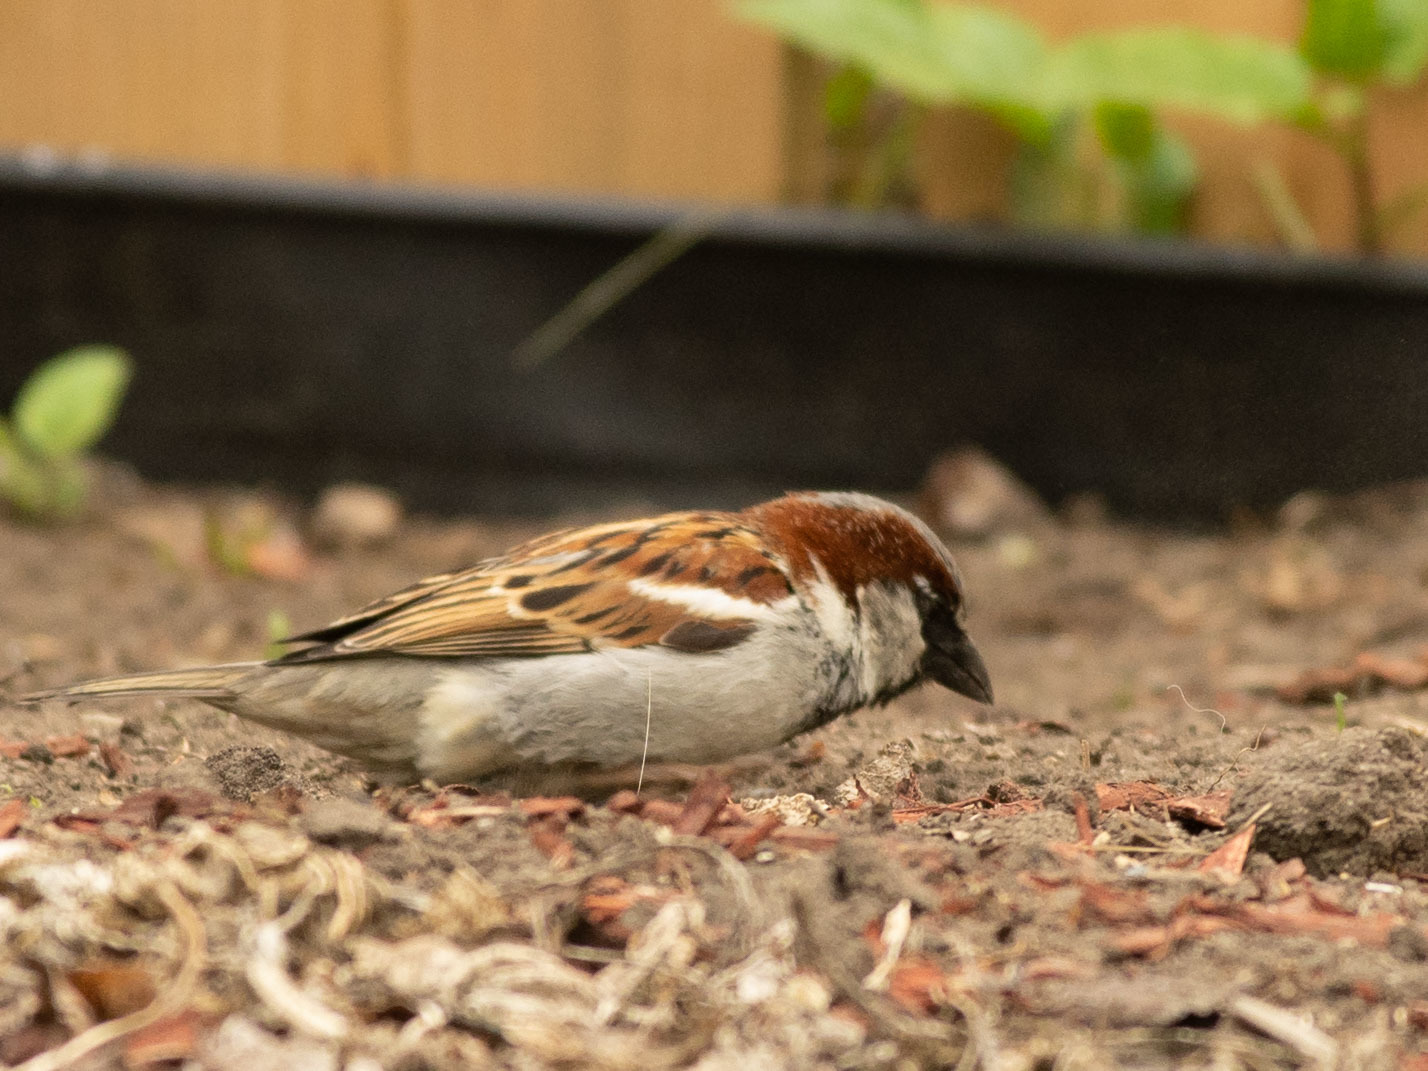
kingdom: Animalia
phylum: Chordata
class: Aves
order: Passeriformes
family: Passeridae
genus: Passer
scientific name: Passer domesticus
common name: House sparrow
